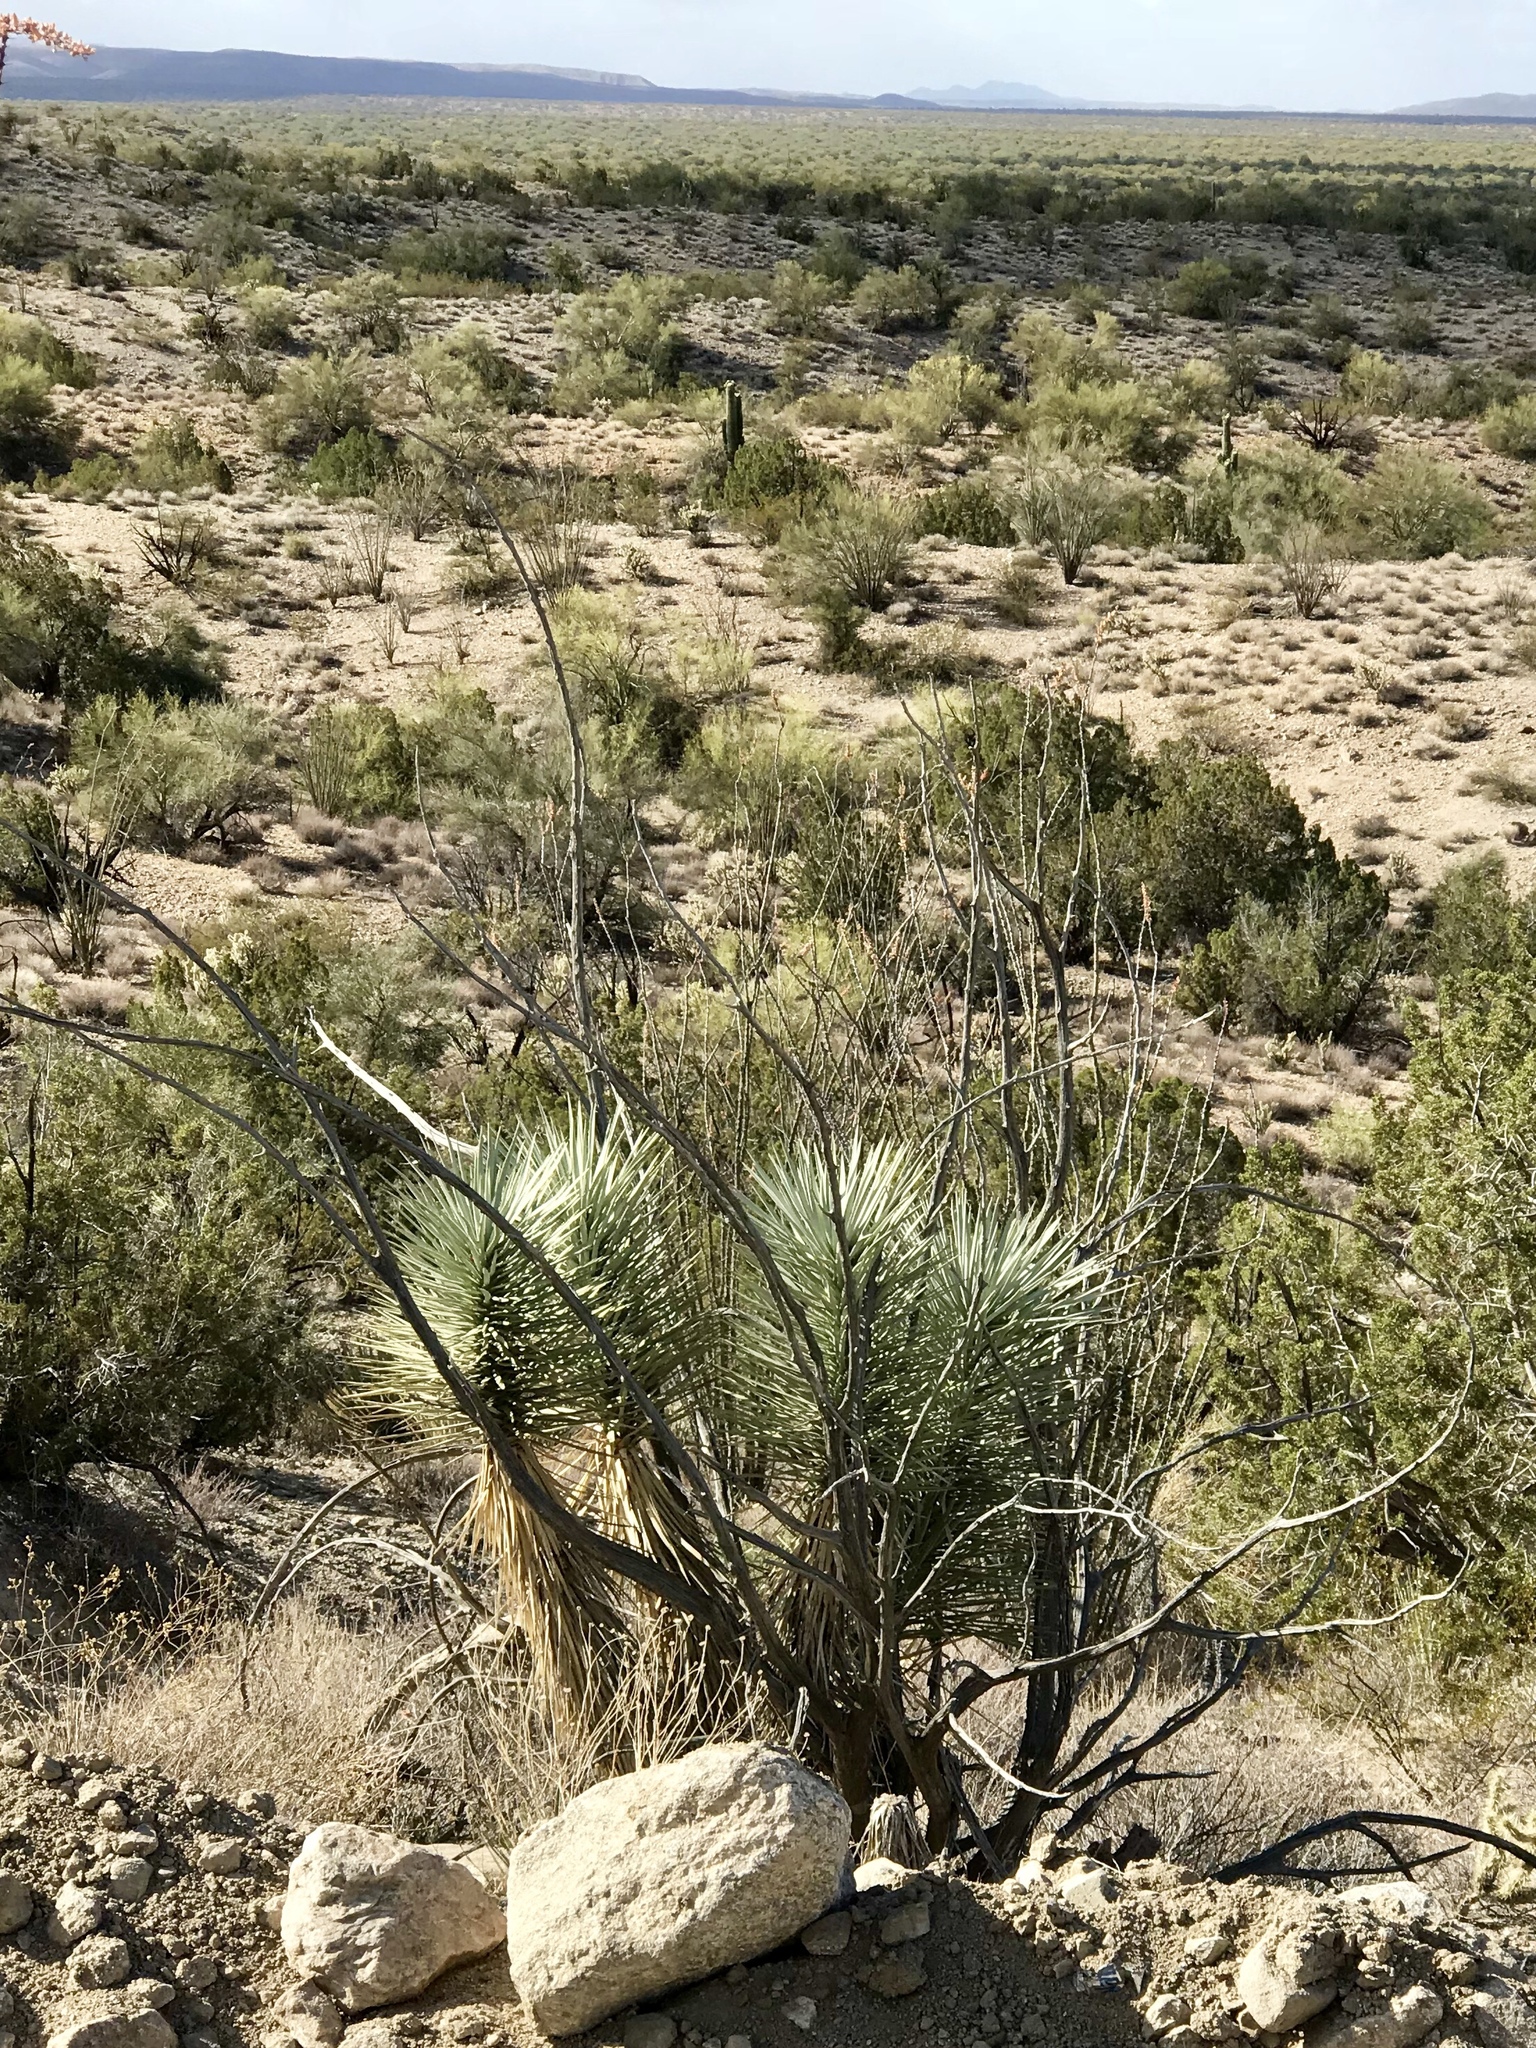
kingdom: Plantae
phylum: Tracheophyta
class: Liliopsida
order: Asparagales
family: Asparagaceae
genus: Yucca
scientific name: Yucca brevifolia
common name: Joshua tree
